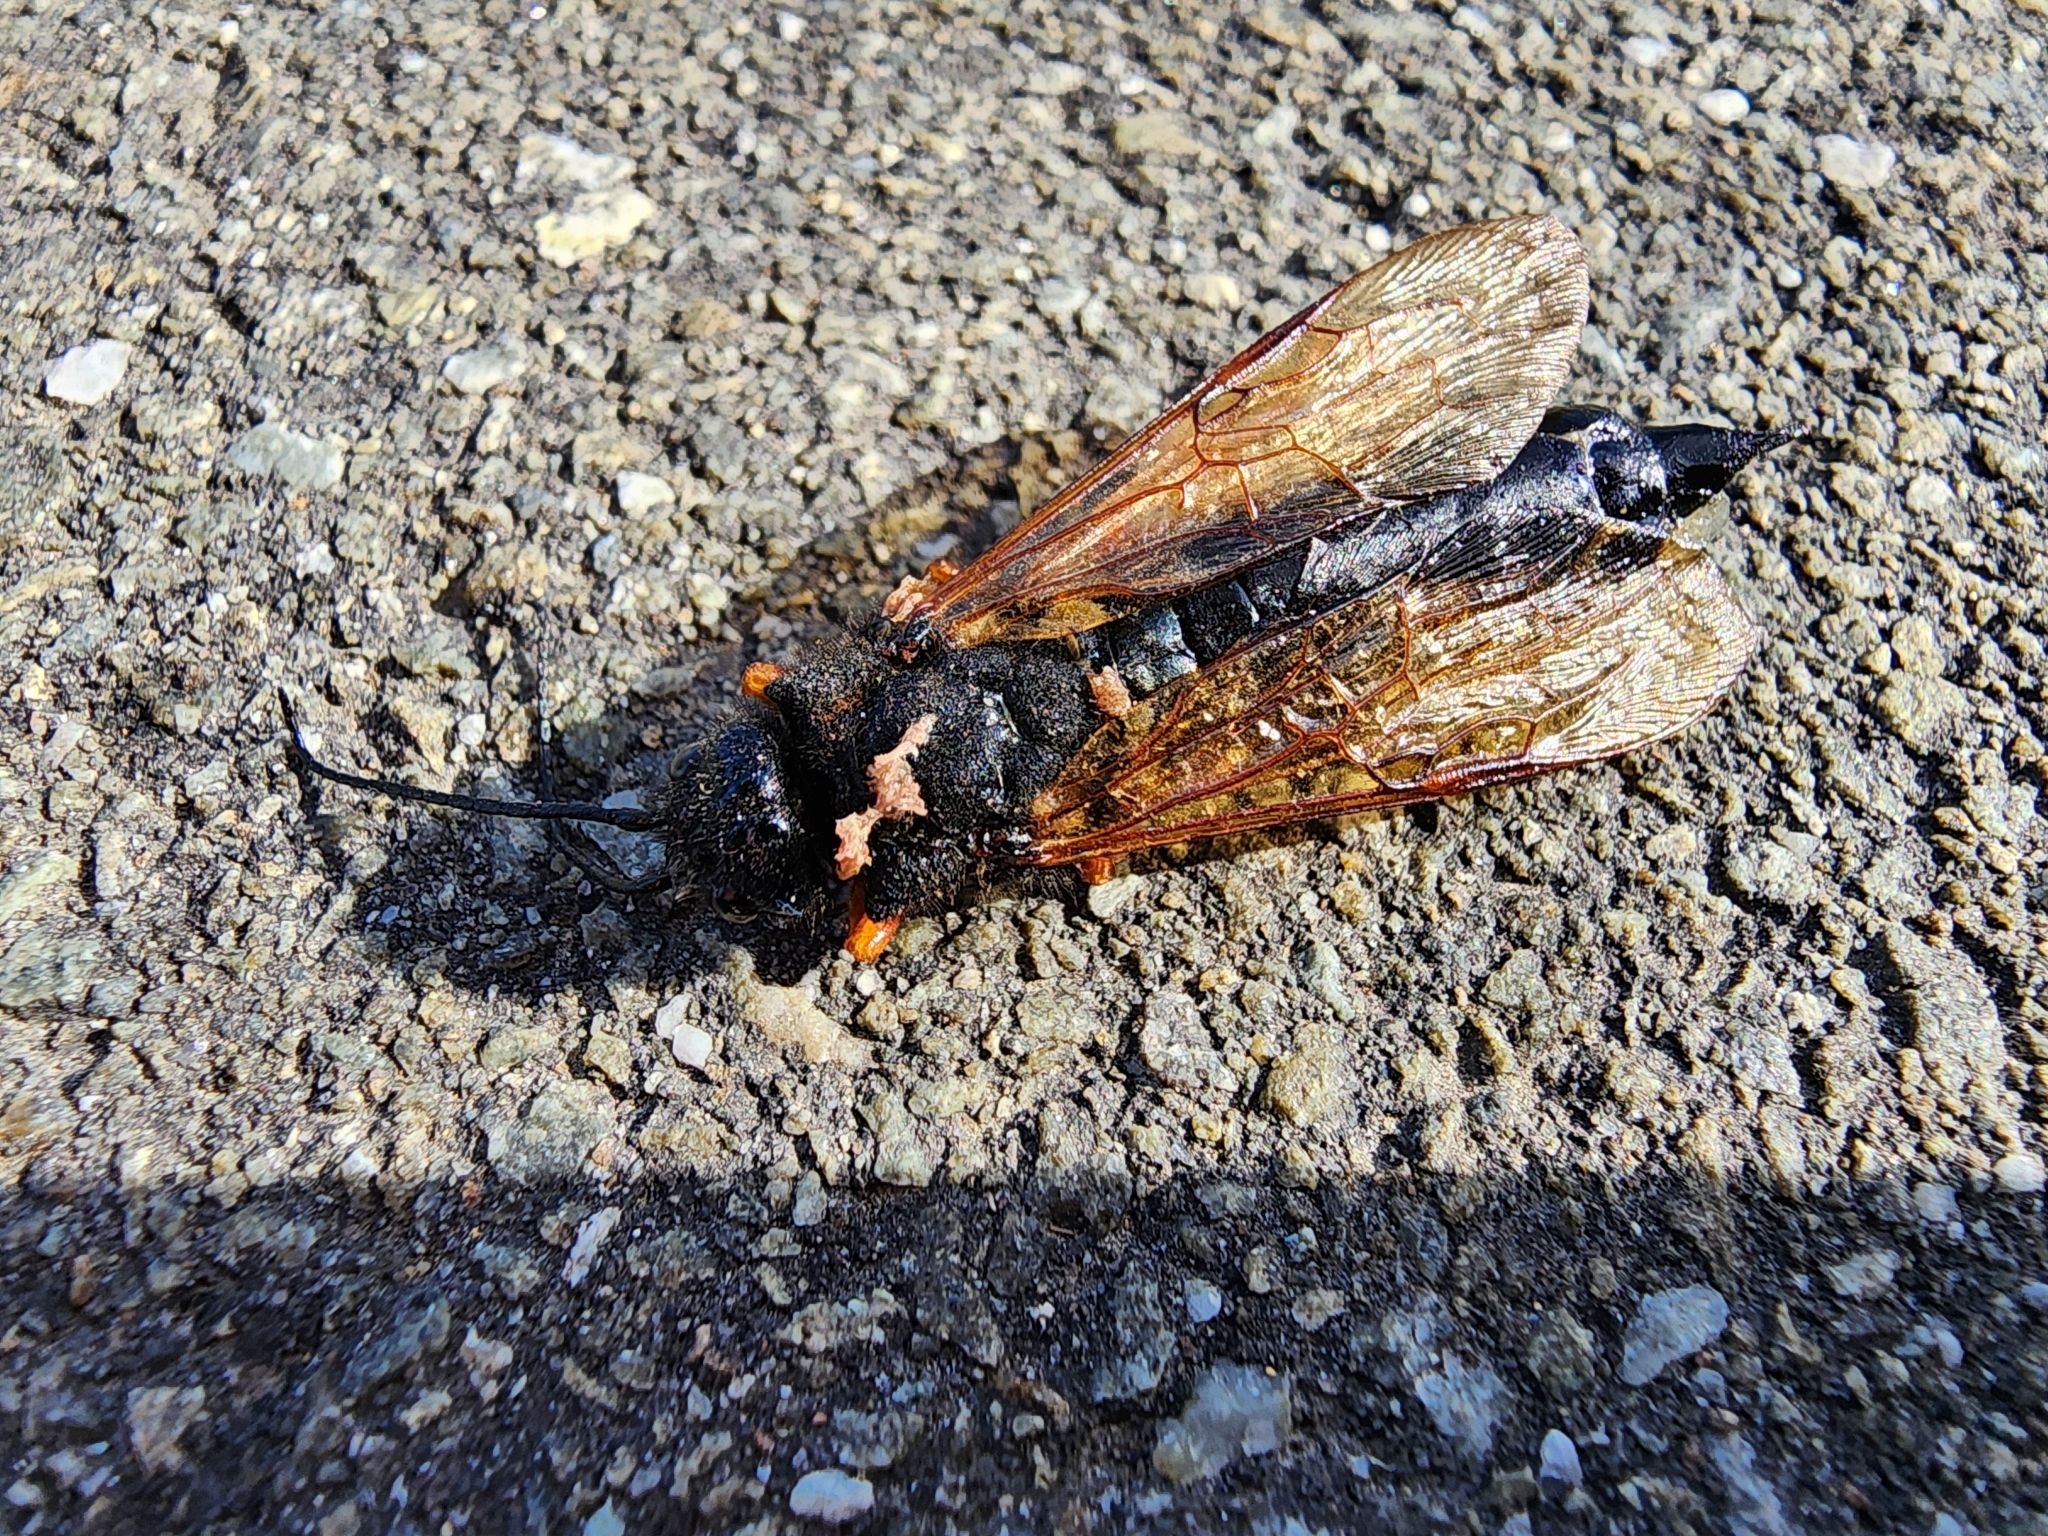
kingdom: Animalia
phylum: Arthropoda
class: Insecta
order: Hymenoptera
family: Siricidae
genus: Sirex
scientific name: Sirex noctilio
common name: Woodwasp
